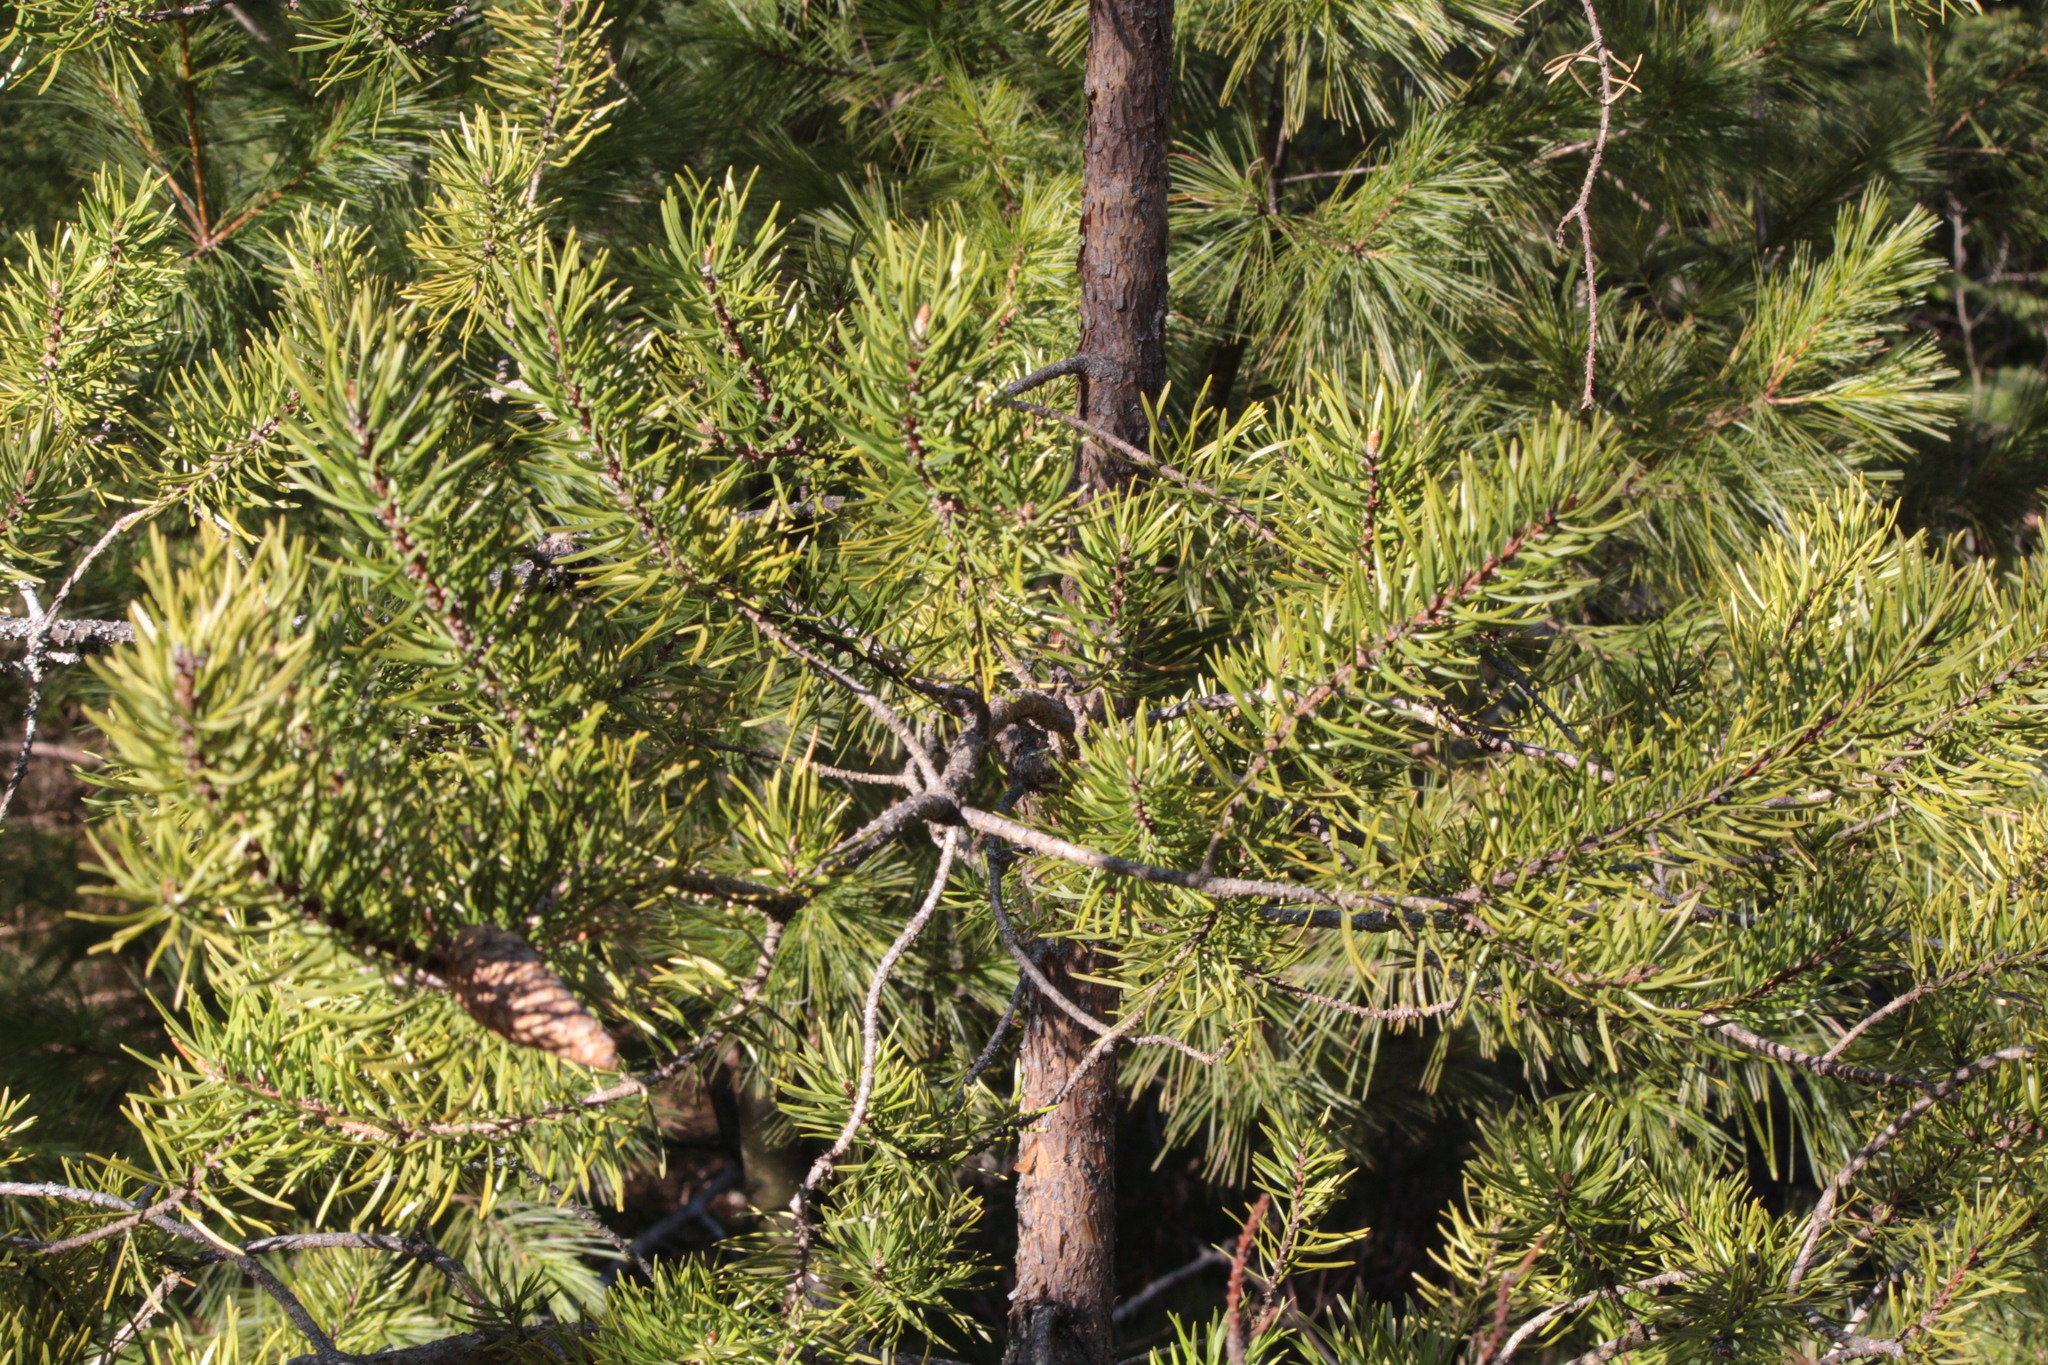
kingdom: Plantae
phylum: Tracheophyta
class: Pinopsida
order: Pinales
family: Pinaceae
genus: Pinus
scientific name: Pinus banksiana
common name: Jack pine
